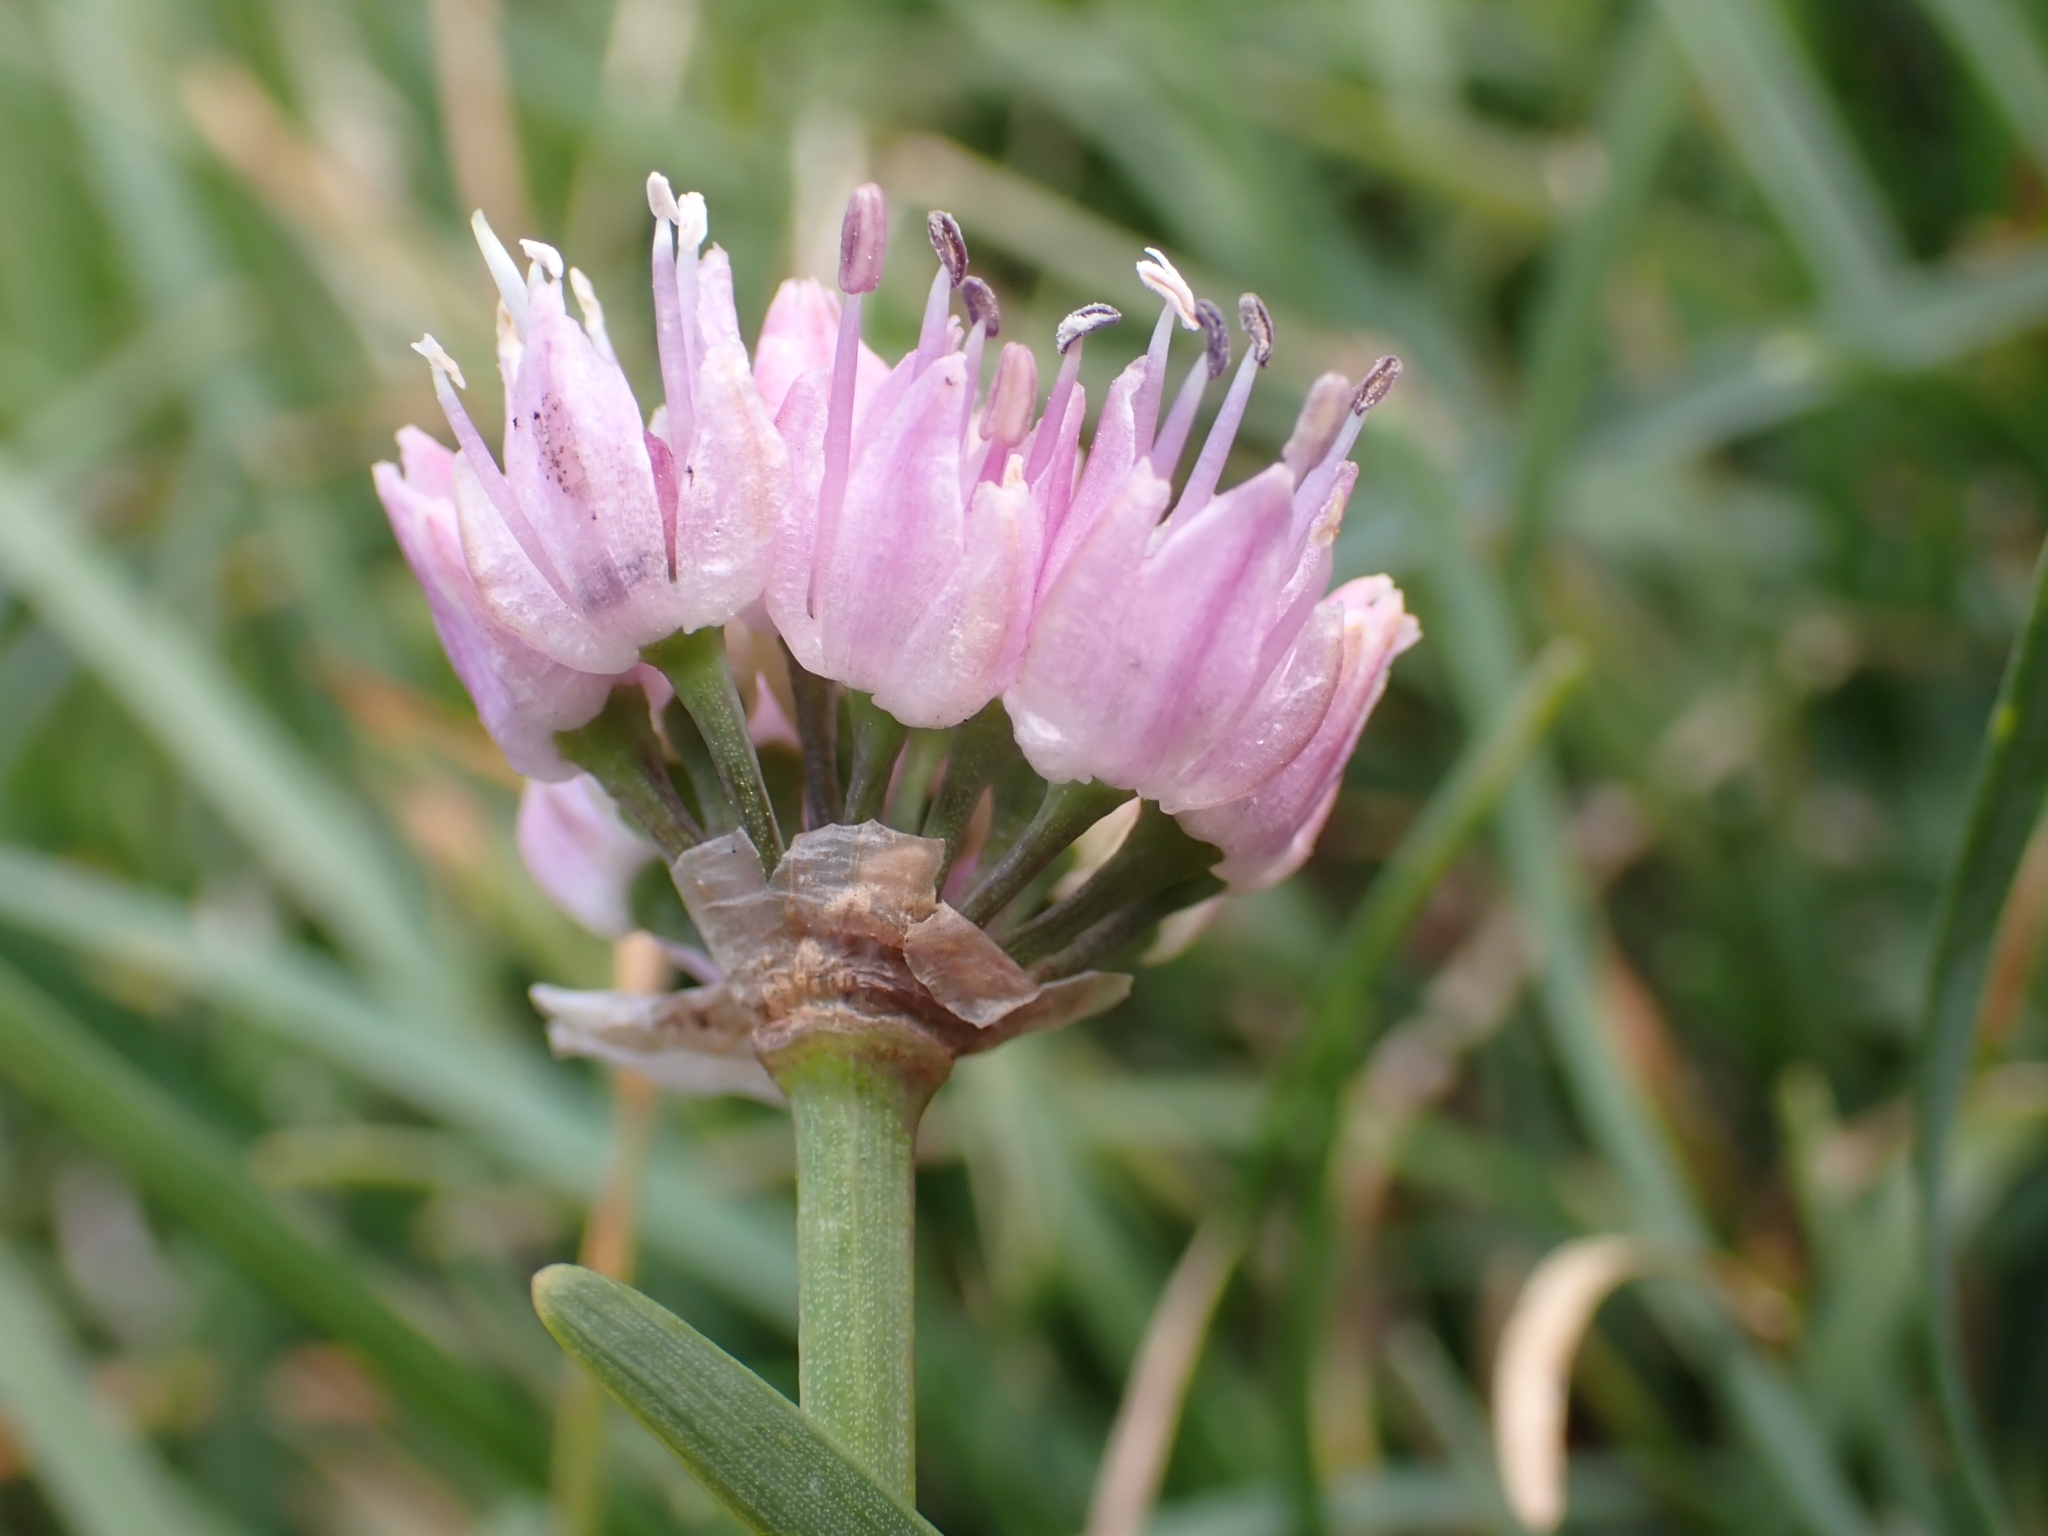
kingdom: Plantae
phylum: Tracheophyta
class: Liliopsida
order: Asparagales
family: Amaryllidaceae
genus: Allium
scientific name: Allium lusitanicum
